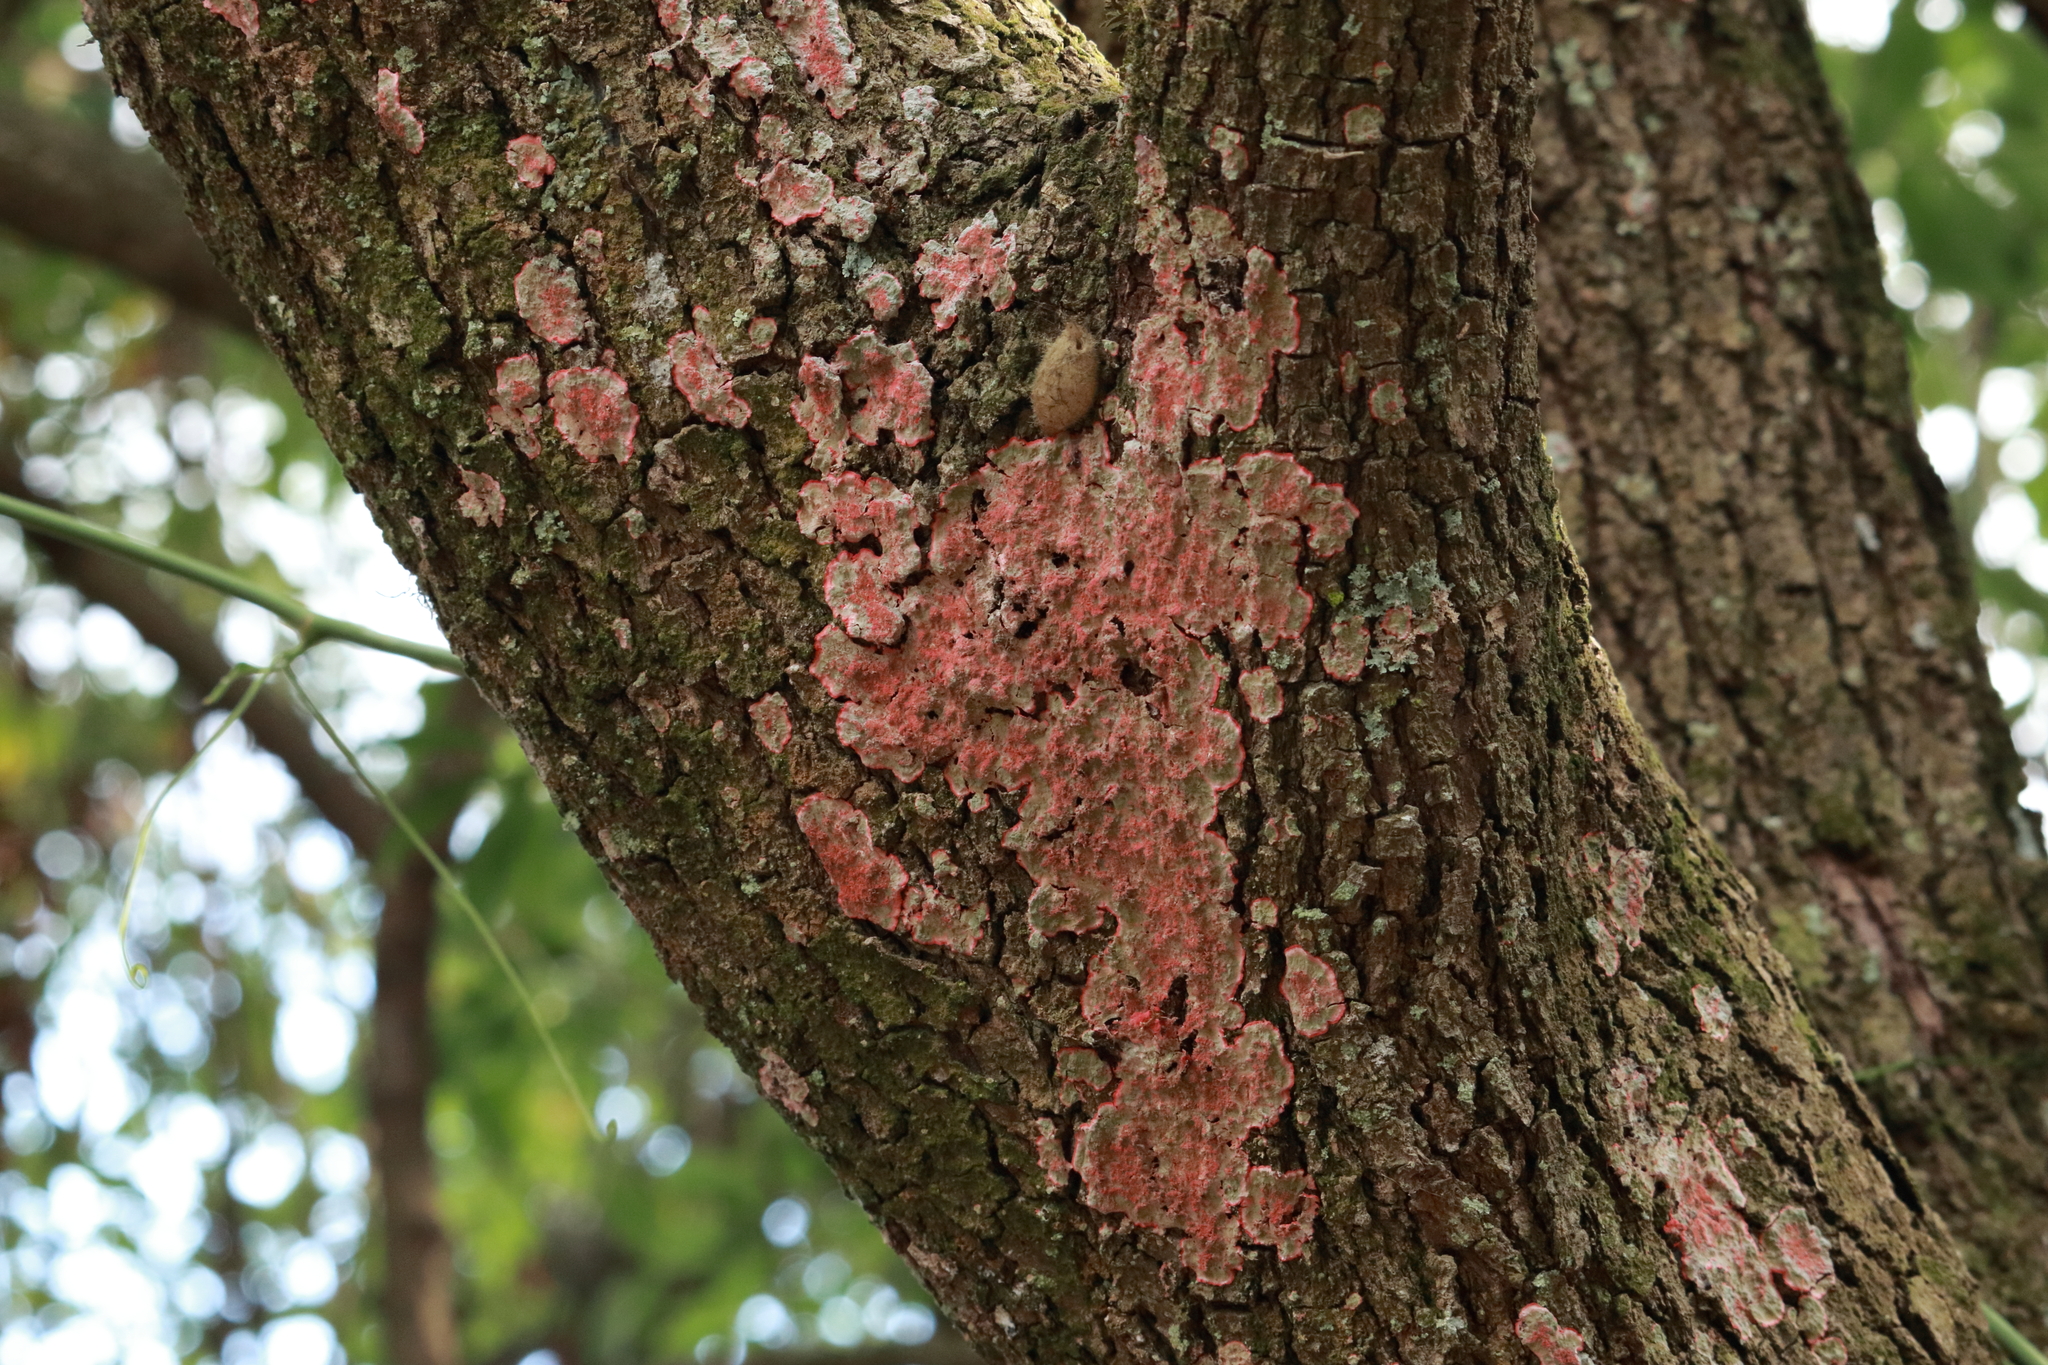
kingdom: Fungi
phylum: Ascomycota
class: Arthoniomycetes
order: Arthoniales
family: Arthoniaceae
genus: Herpothallon
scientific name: Herpothallon rubrocinctum
